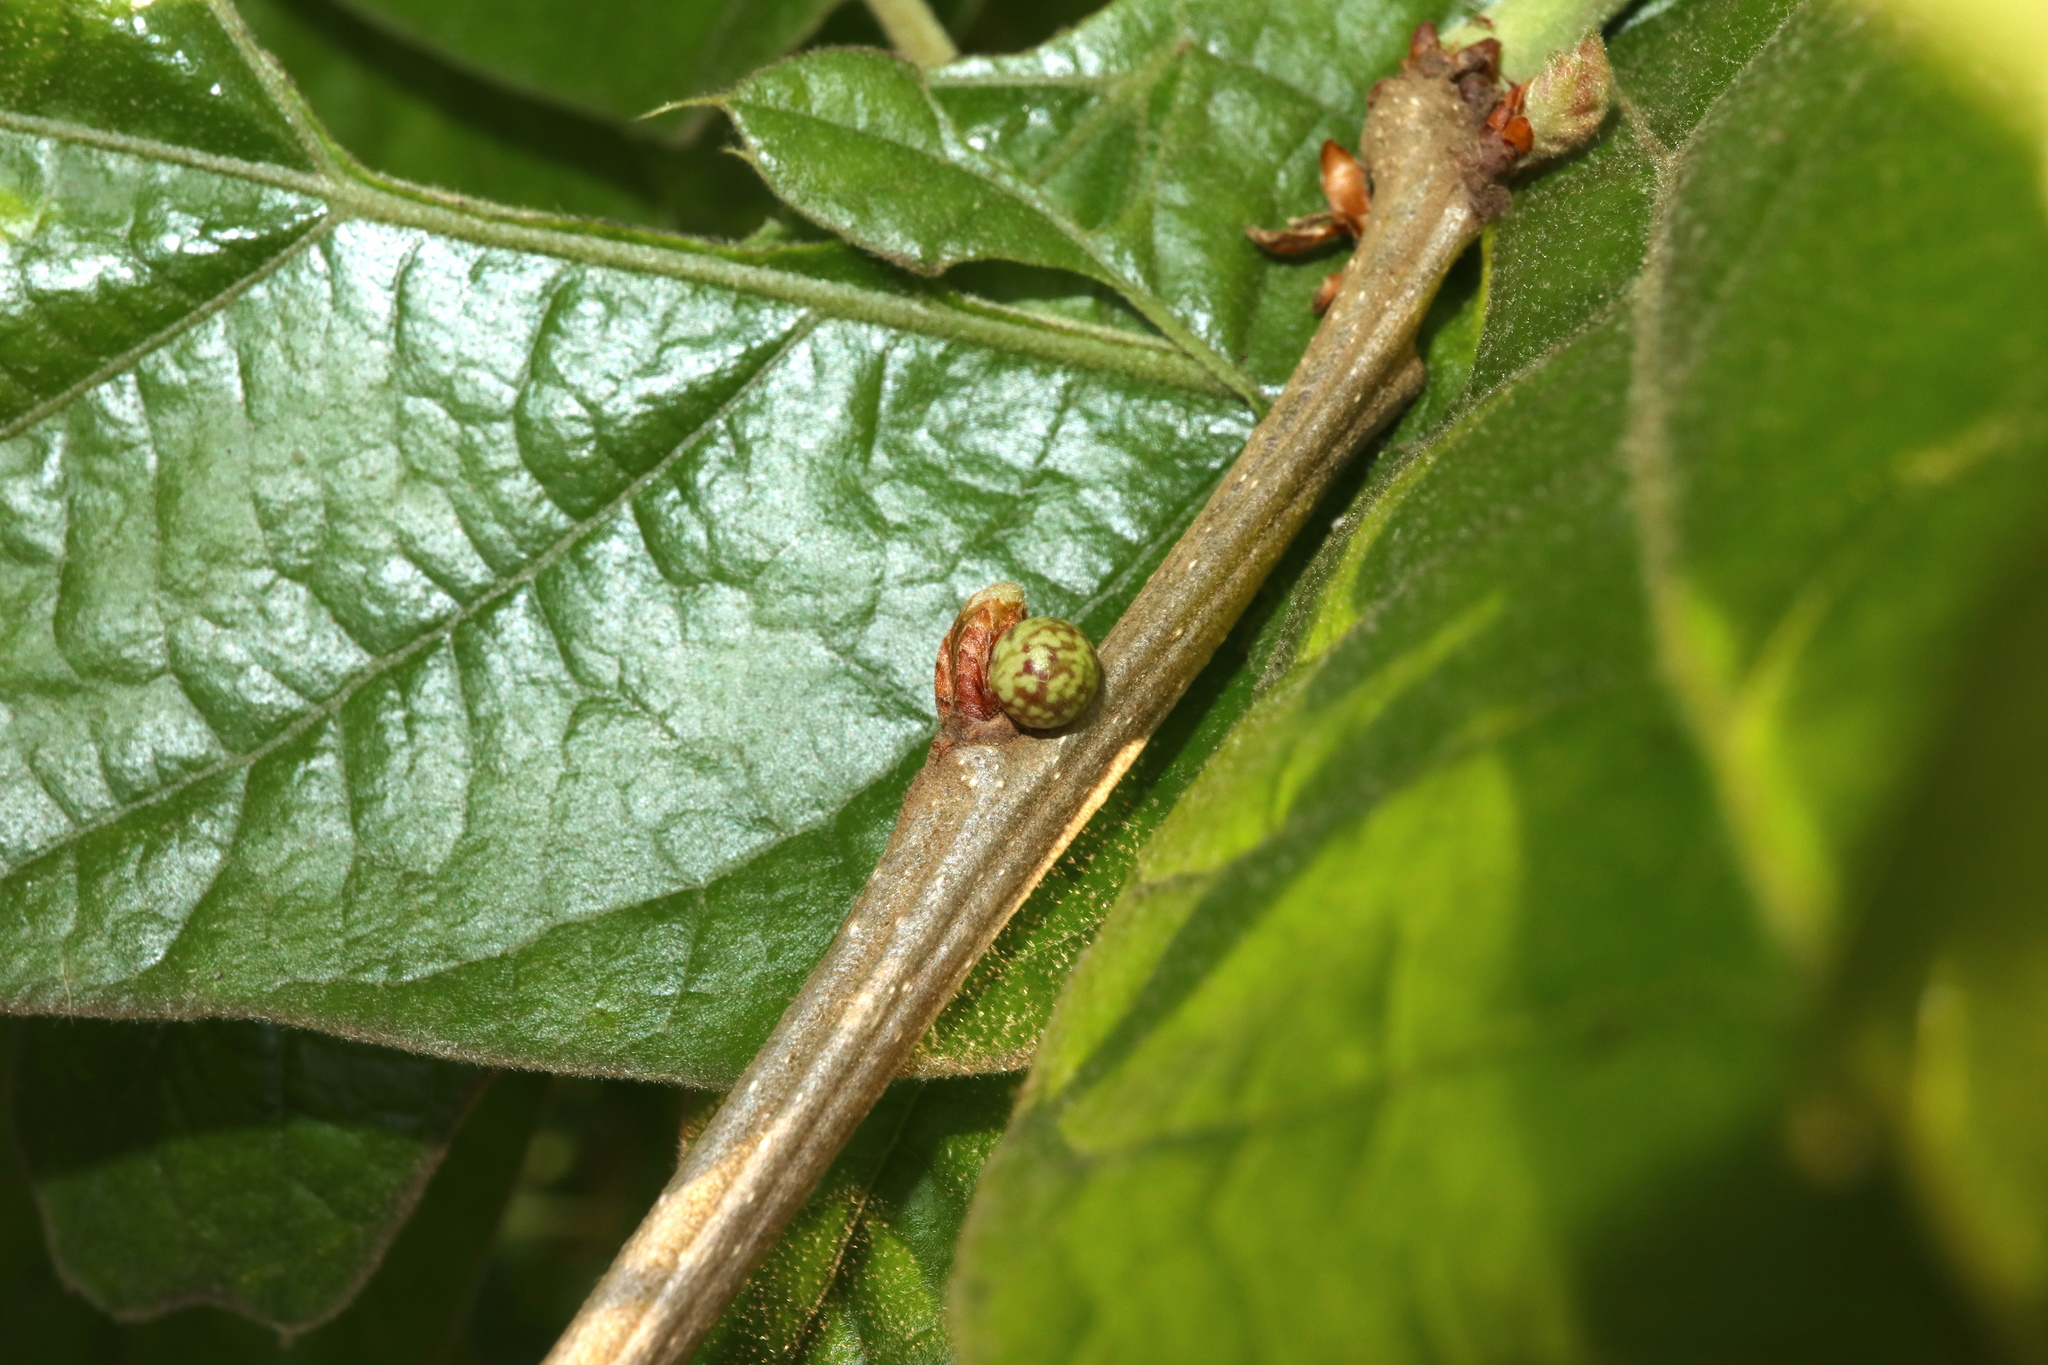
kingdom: Animalia
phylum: Arthropoda
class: Insecta
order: Hymenoptera
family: Cynipidae
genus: Andricus
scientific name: Andricus
